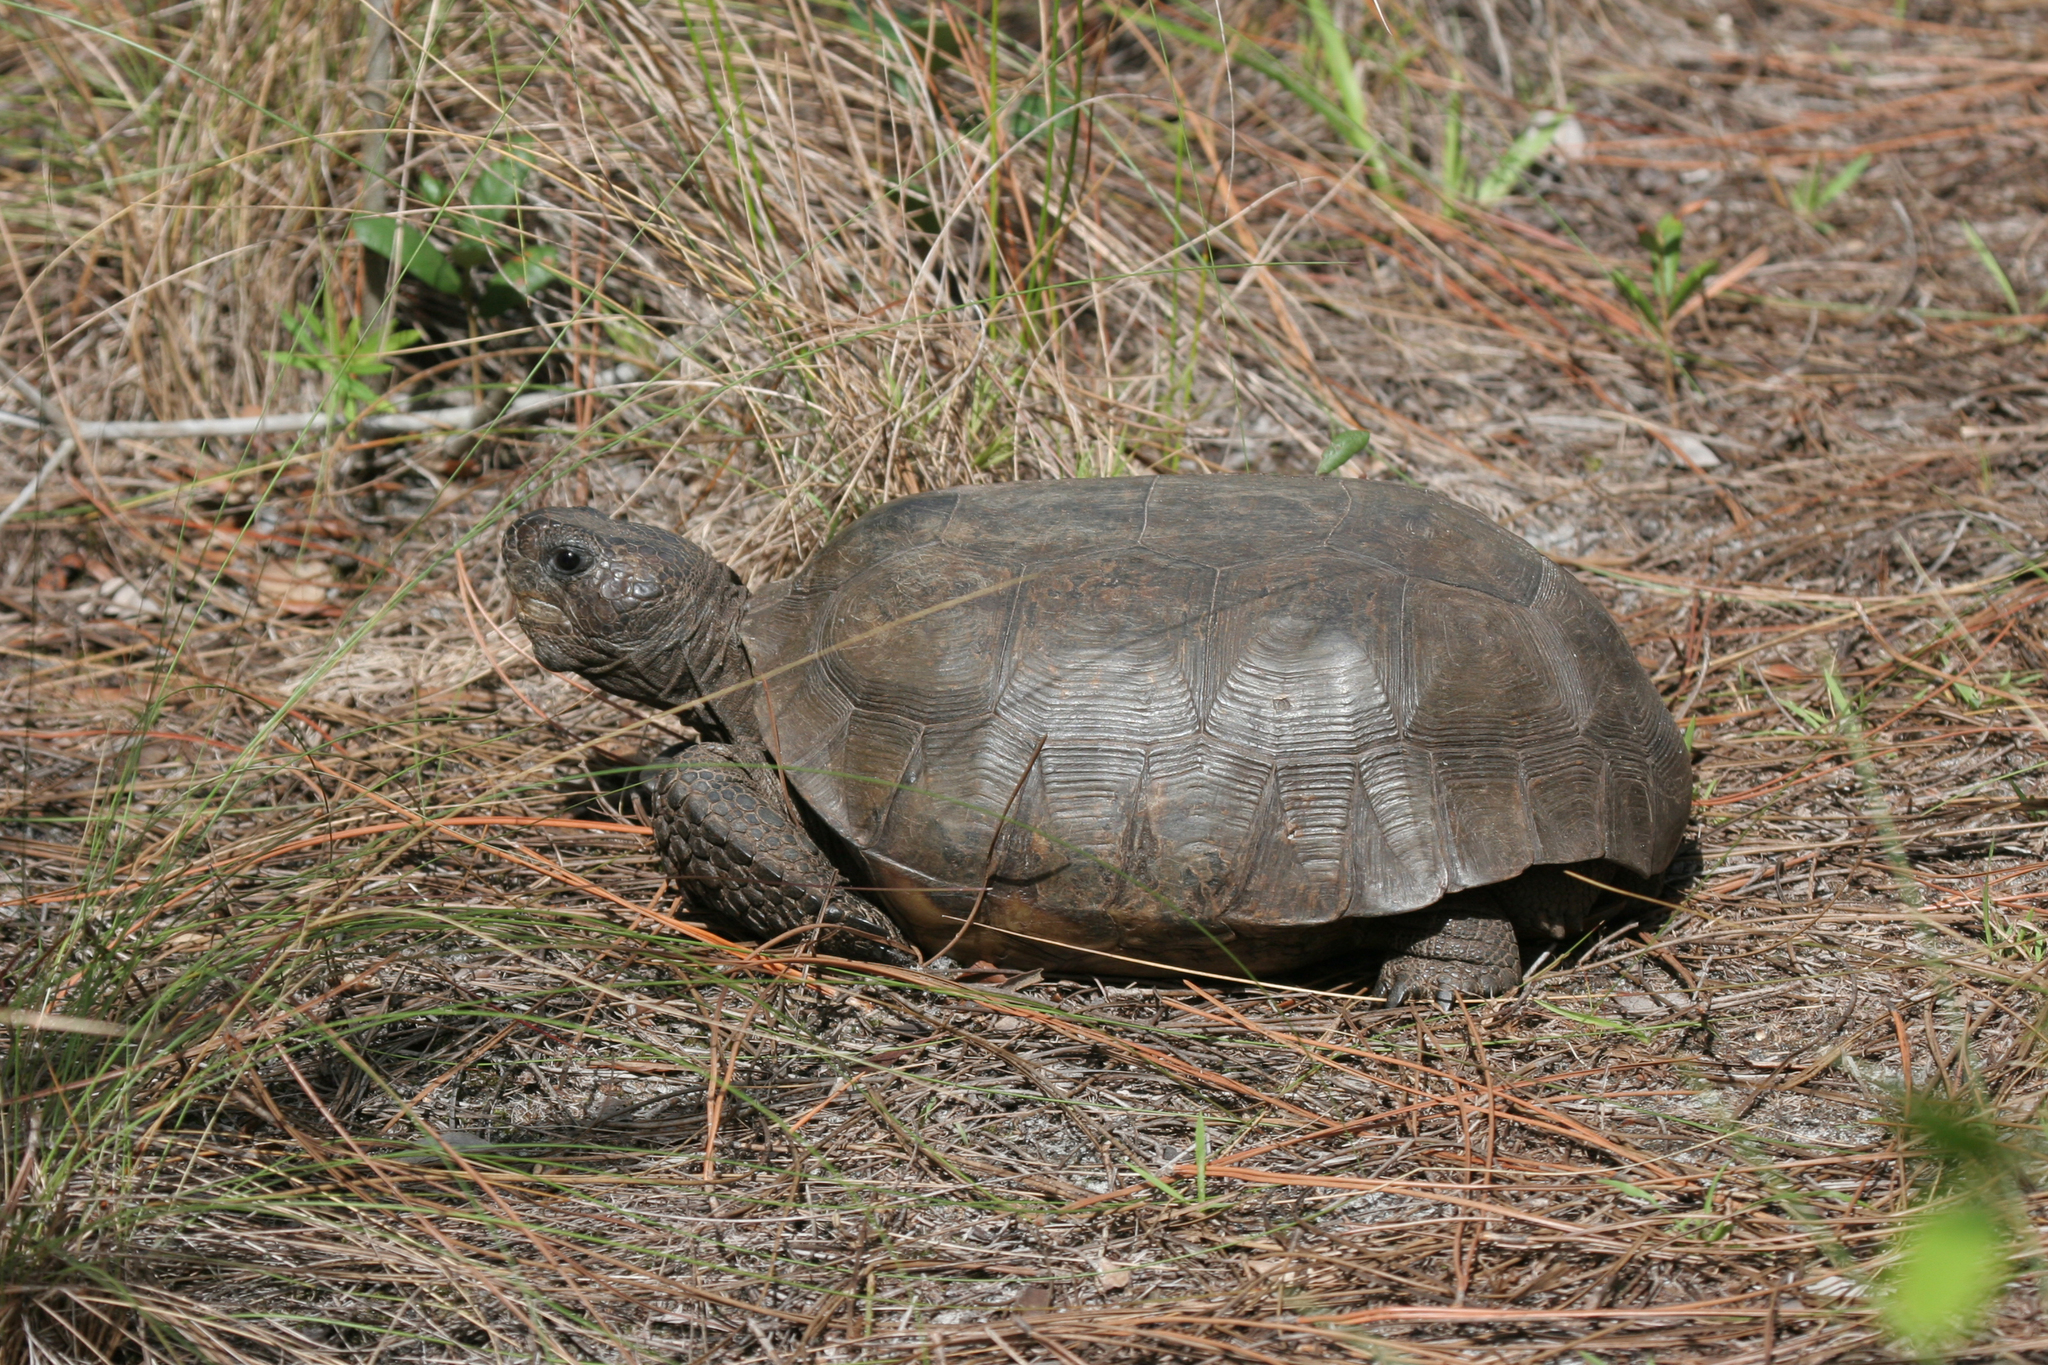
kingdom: Animalia
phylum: Chordata
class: Testudines
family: Testudinidae
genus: Gopherus
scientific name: Gopherus polyphemus
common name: Florida gopher tortoise
